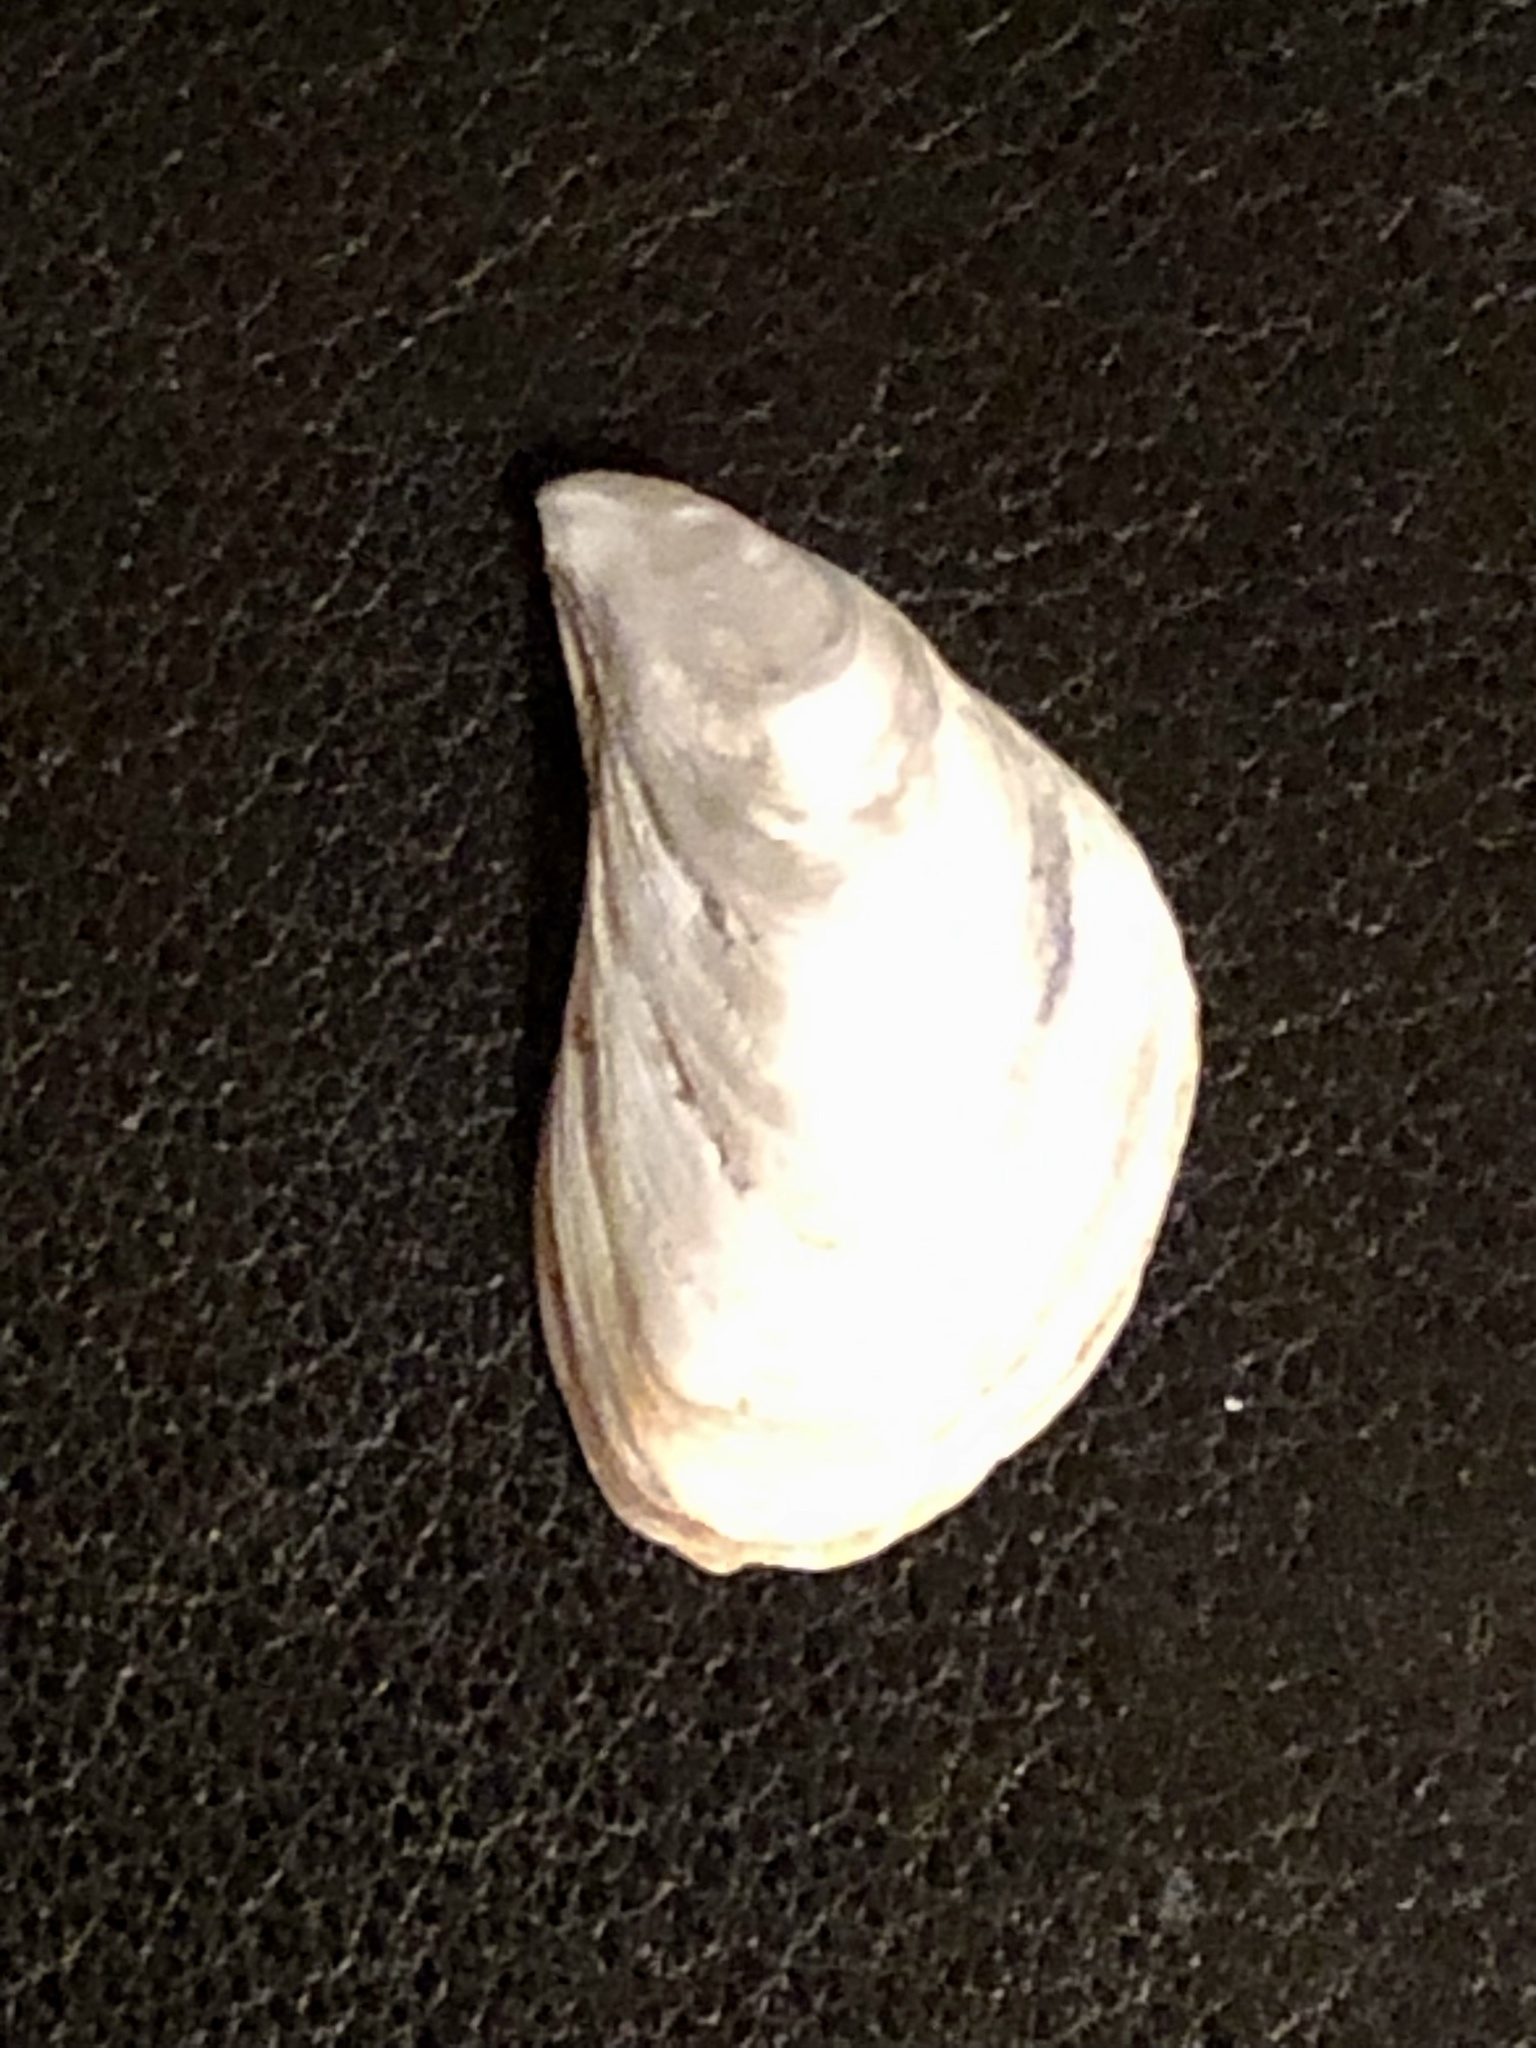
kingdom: Animalia
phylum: Mollusca
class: Bivalvia
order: Myida
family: Dreissenidae
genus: Dreissena
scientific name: Dreissena bugensis
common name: Quagga mussel
